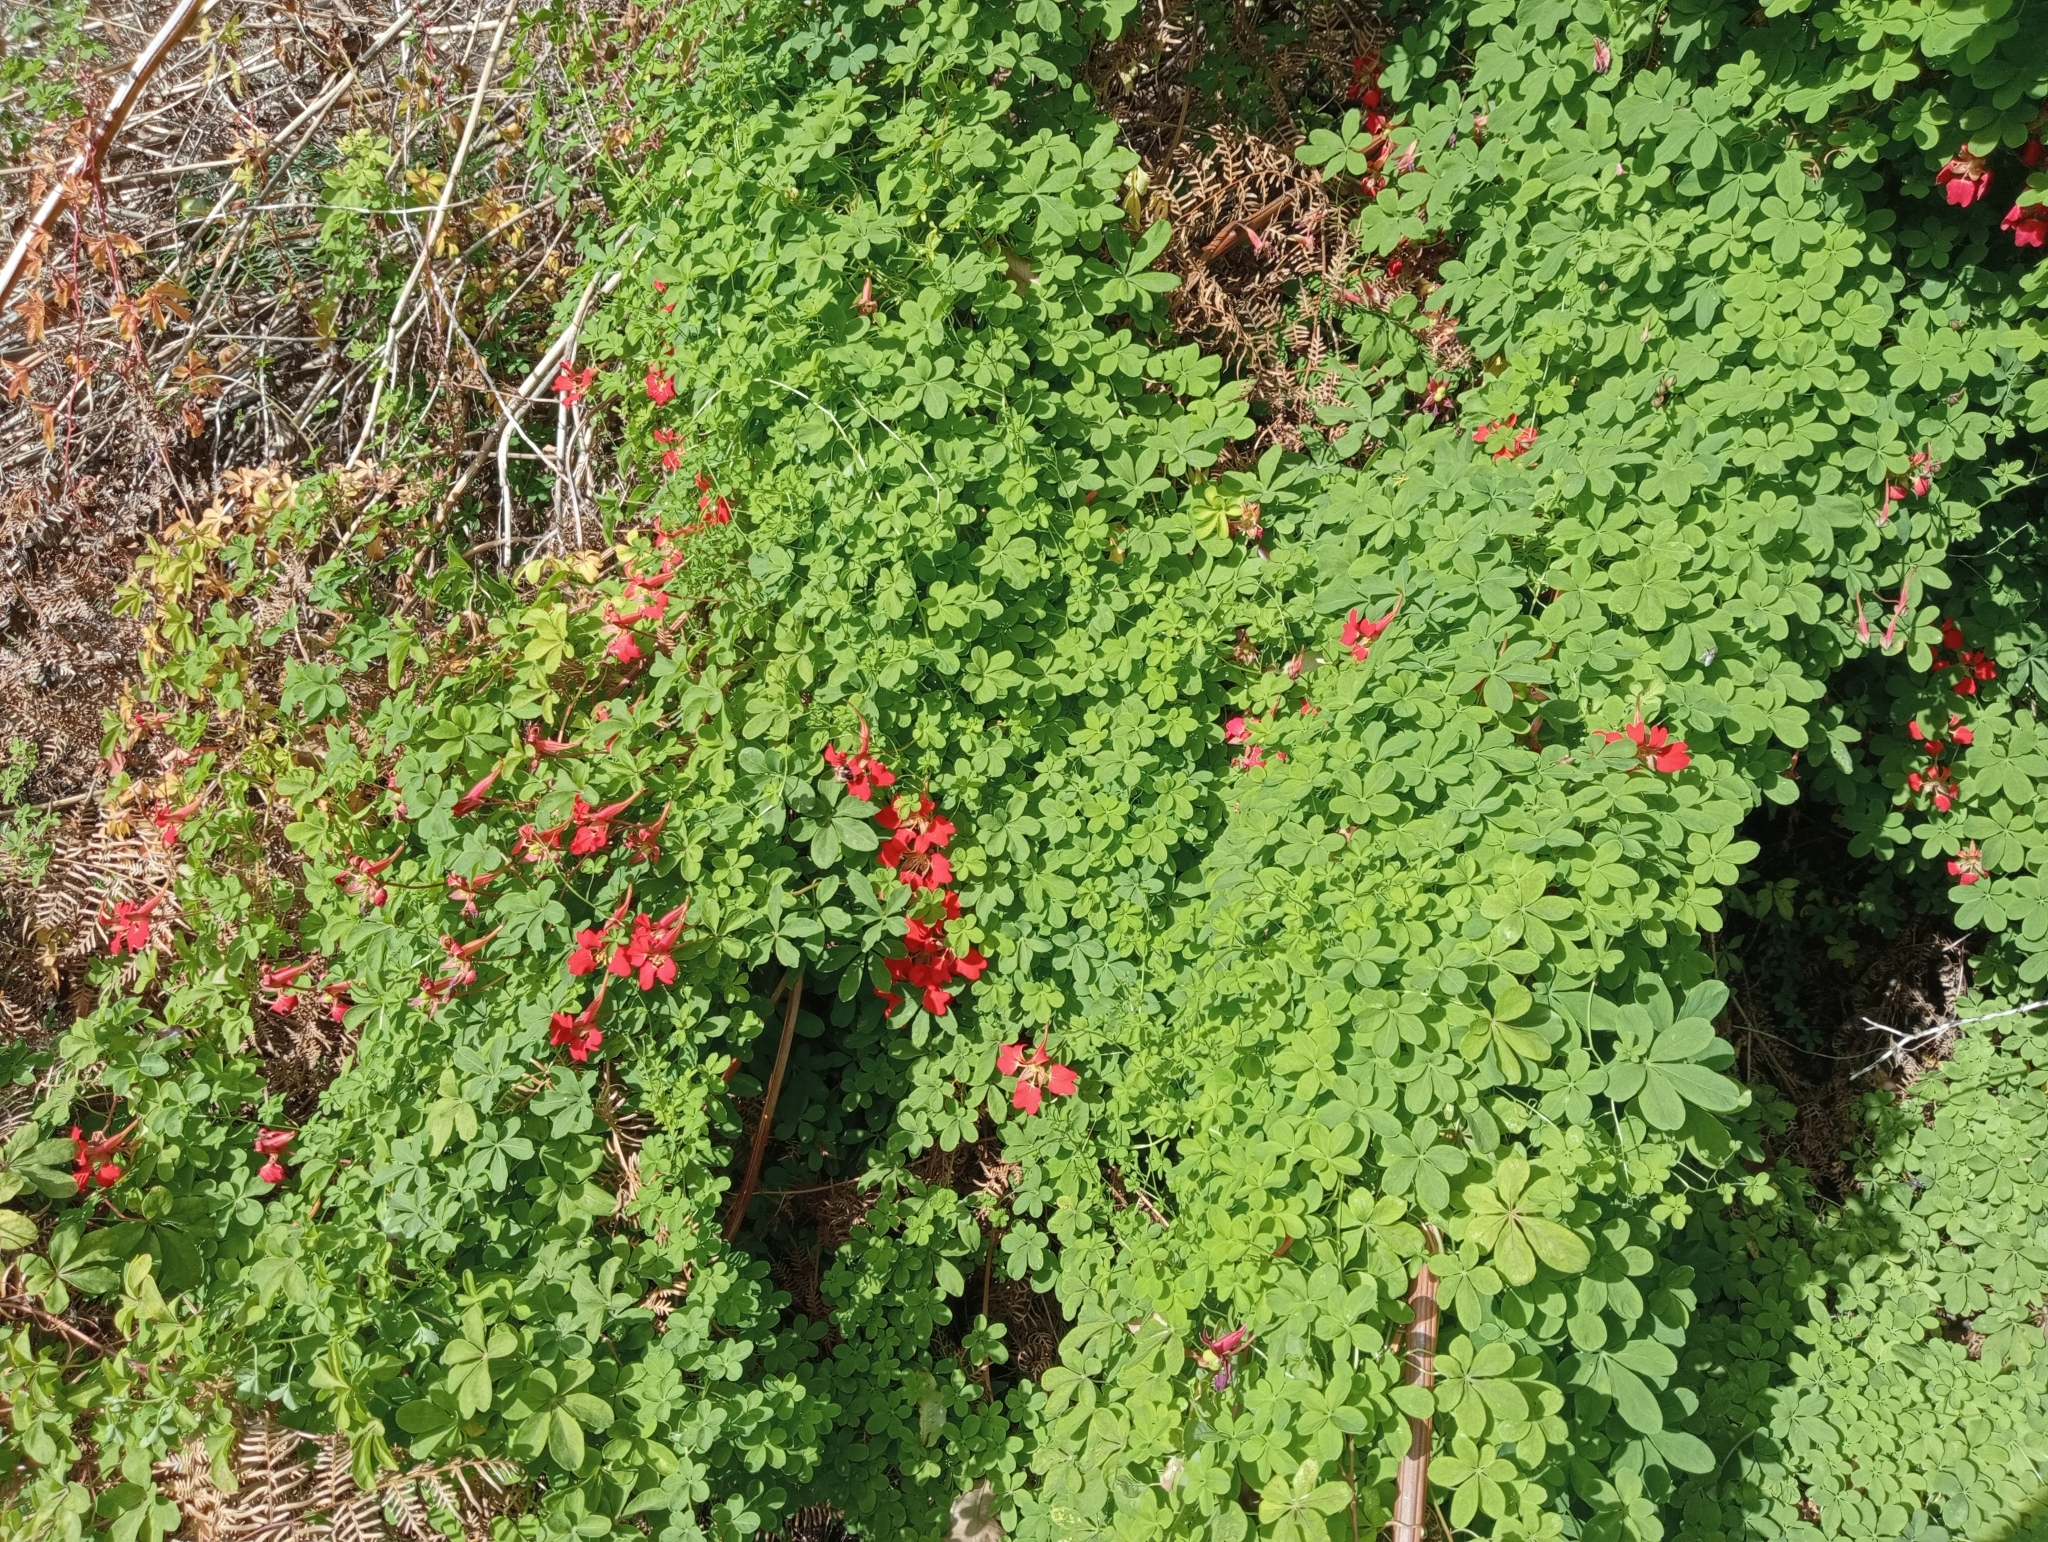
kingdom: Plantae
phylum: Tracheophyta
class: Magnoliopsida
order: Brassicales
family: Tropaeolaceae
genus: Tropaeolum
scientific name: Tropaeolum speciosum
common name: Flame nasturtium
